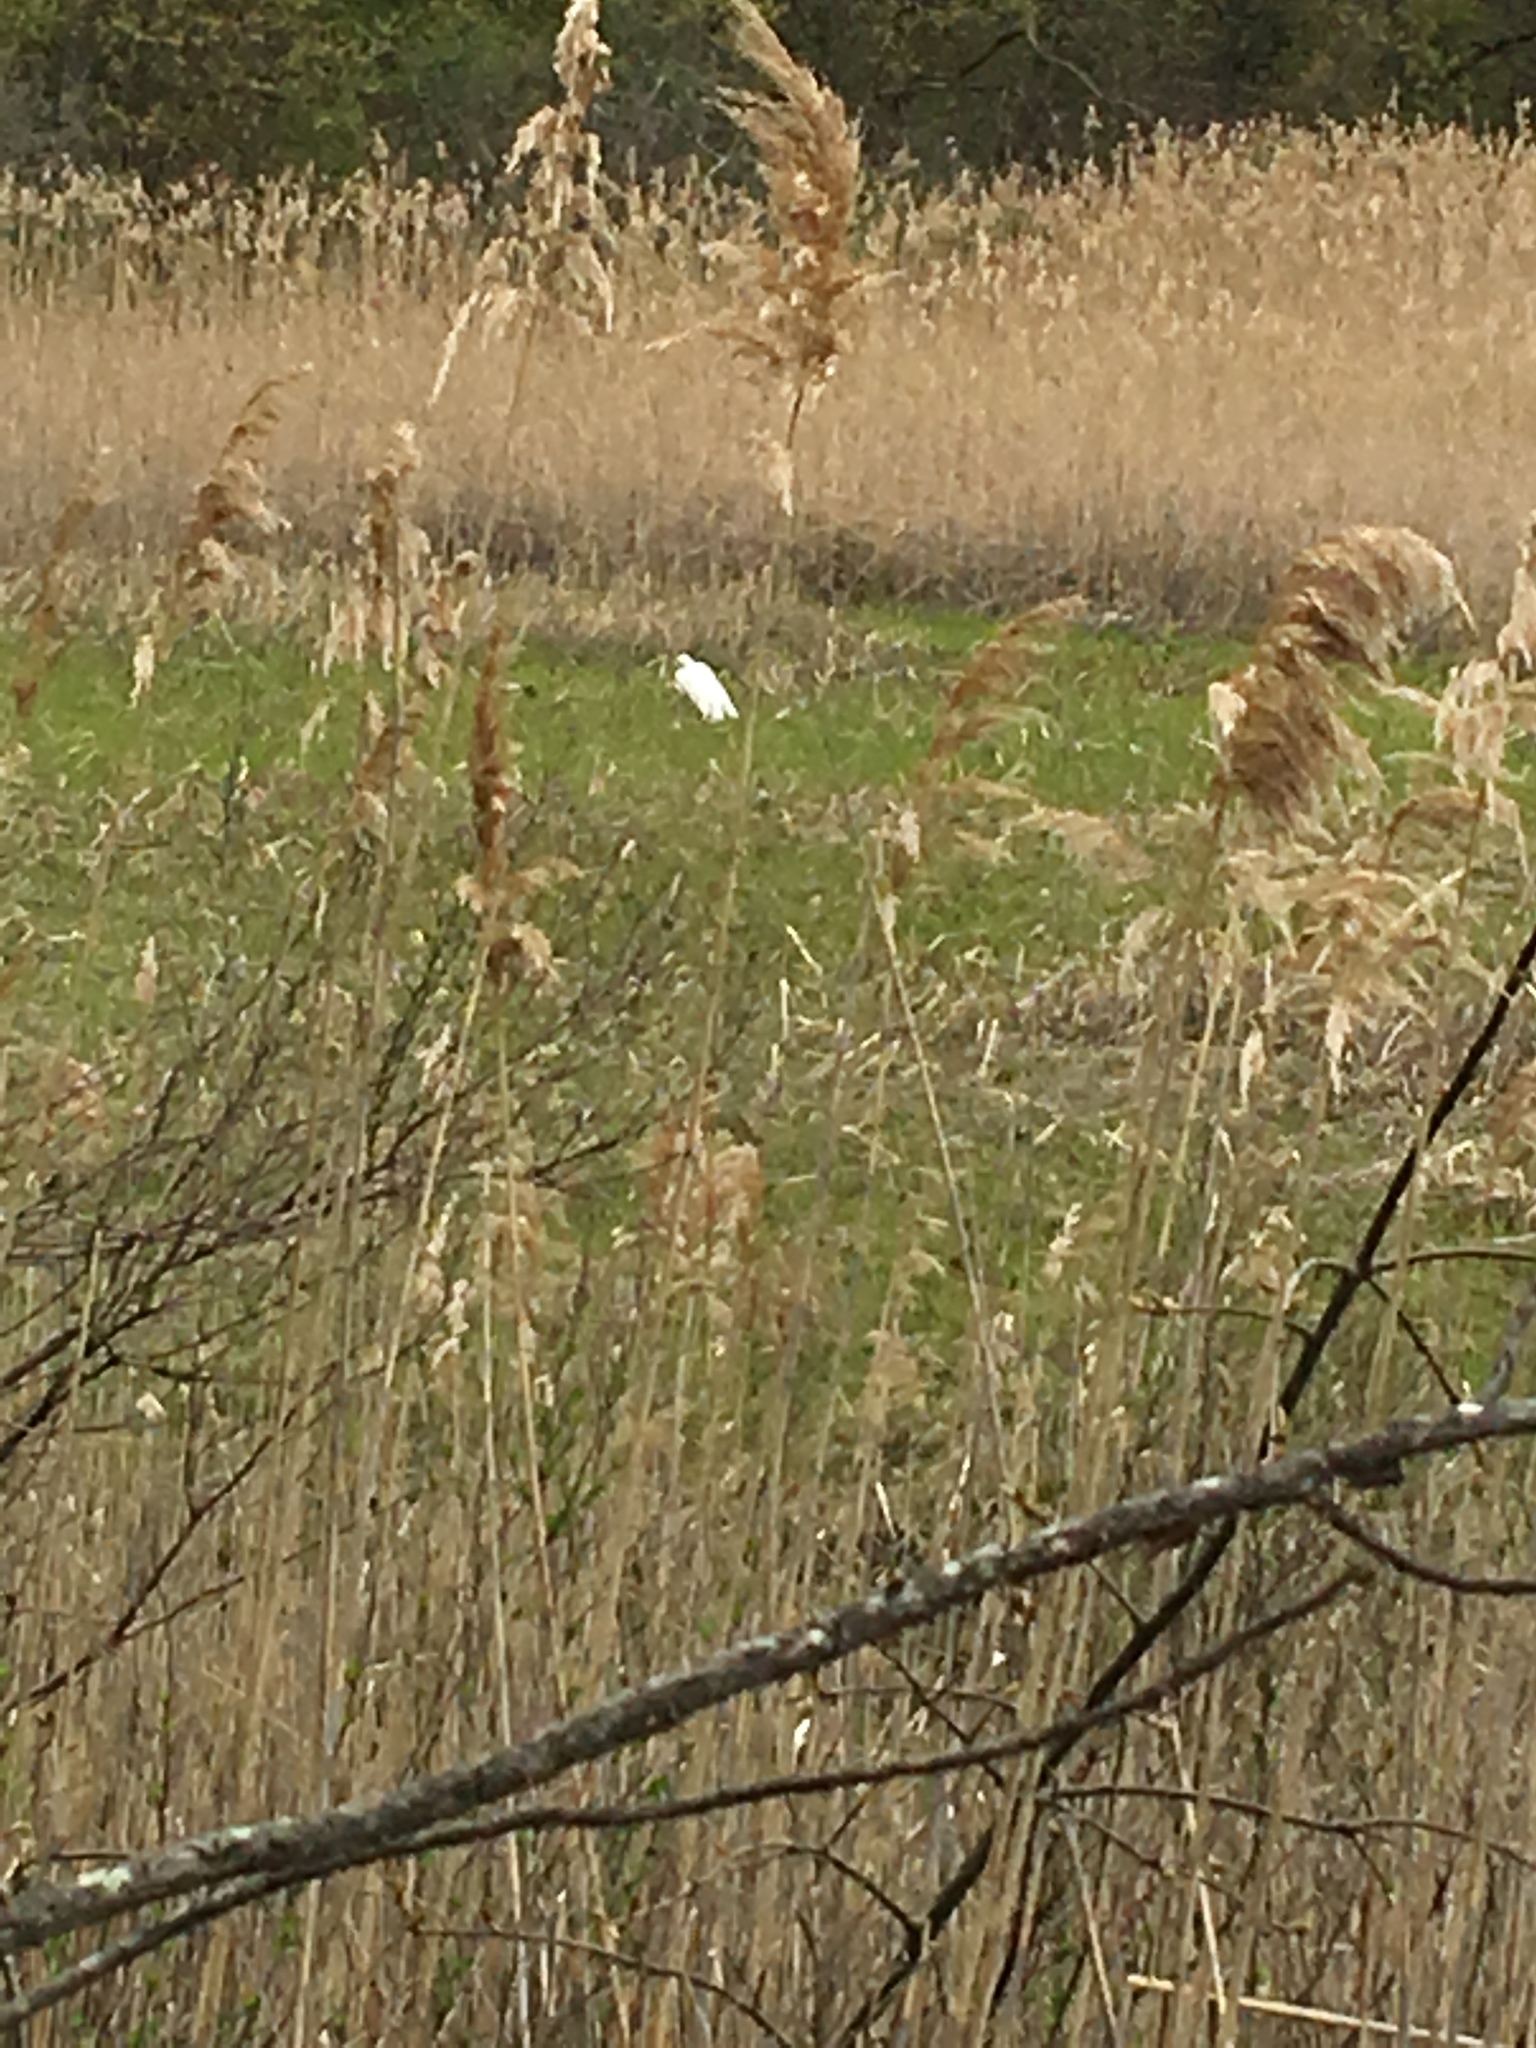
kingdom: Plantae
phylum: Tracheophyta
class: Liliopsida
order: Poales
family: Poaceae
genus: Phragmites
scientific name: Phragmites australis
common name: Common reed
